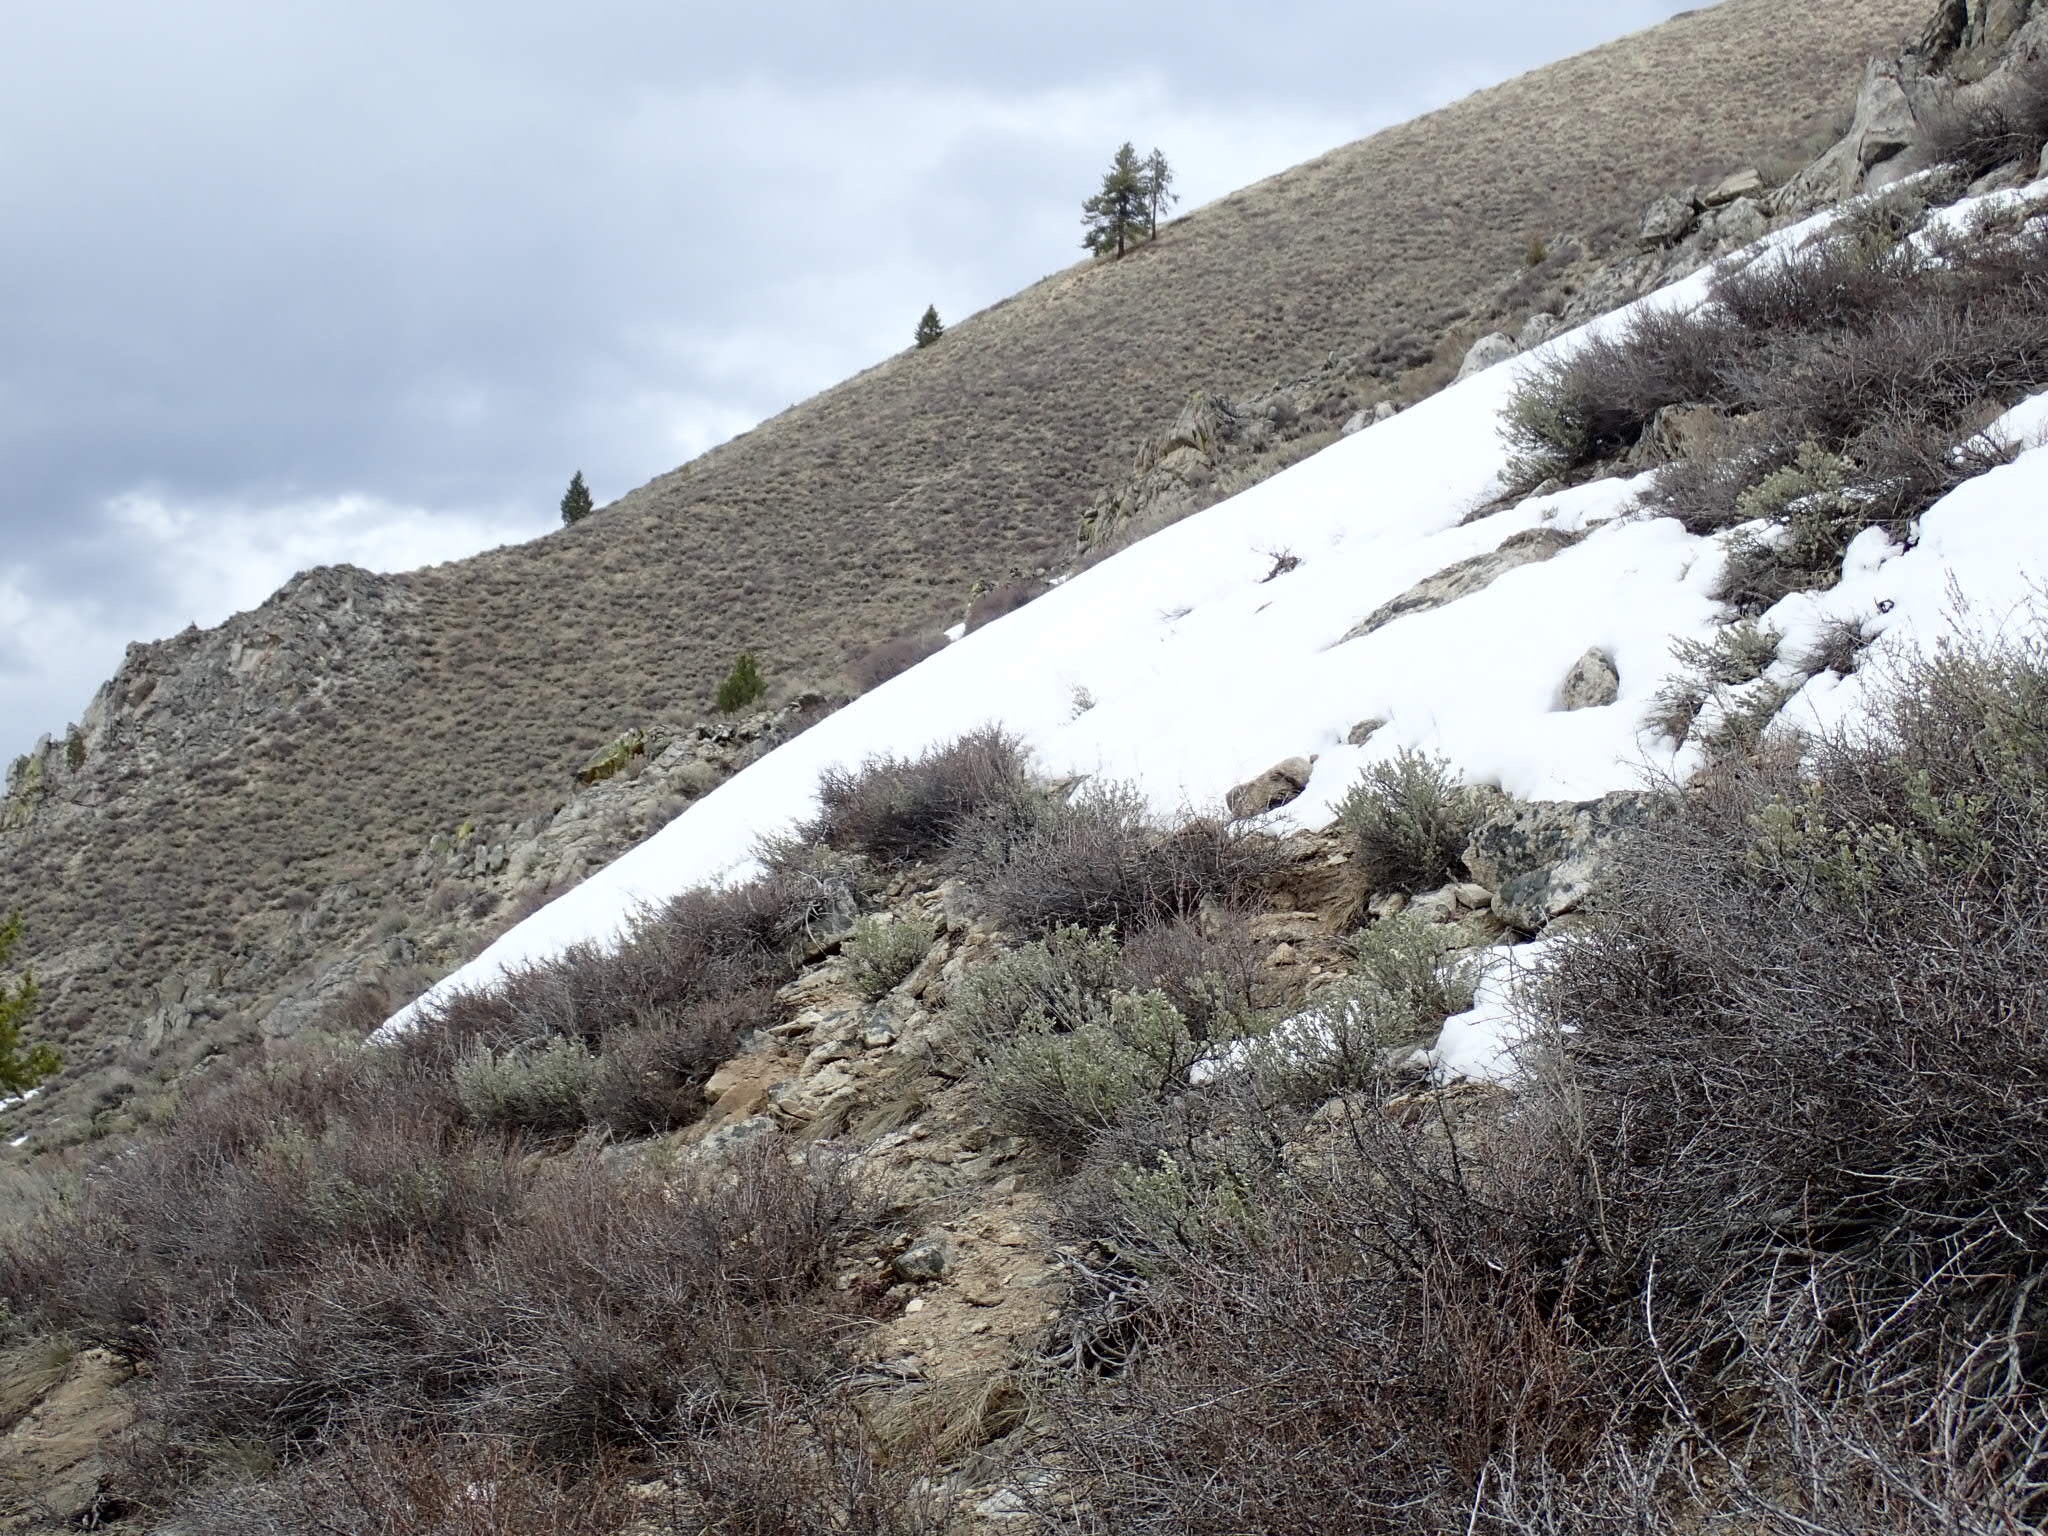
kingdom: Plantae
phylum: Tracheophyta
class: Magnoliopsida
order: Asterales
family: Asteraceae
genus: Artemisia
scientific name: Artemisia tridentata
